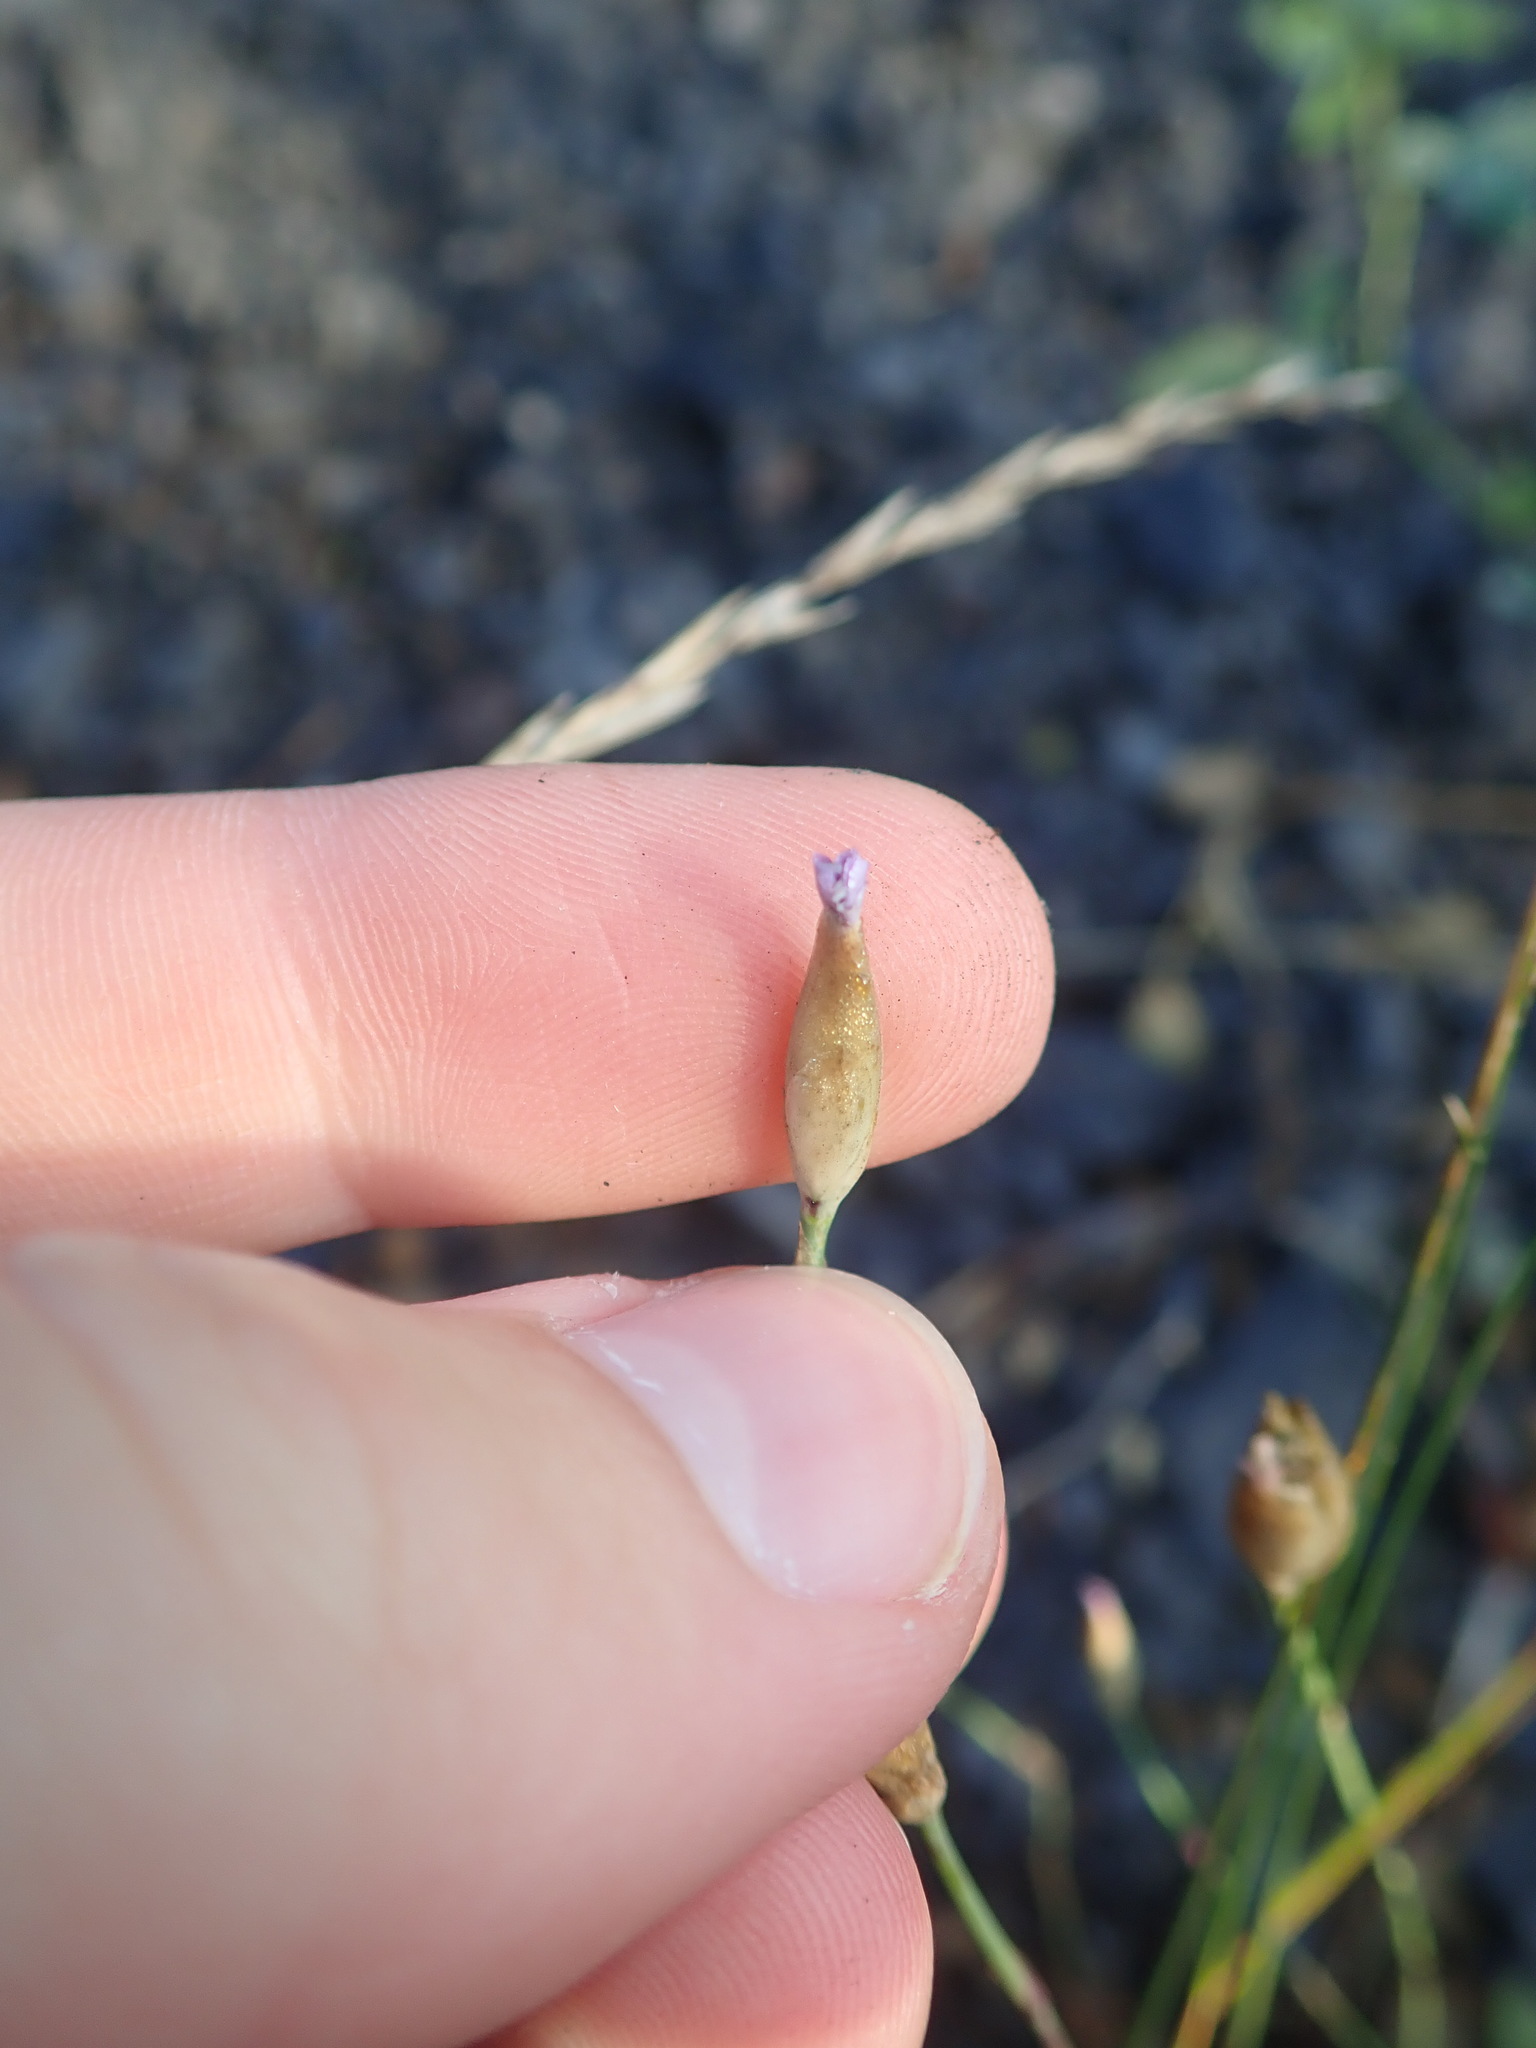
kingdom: Plantae
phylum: Tracheophyta
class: Magnoliopsida
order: Caryophyllales
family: Caryophyllaceae
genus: Petrorhagia
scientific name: Petrorhagia prolifera
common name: Proliferous pink
